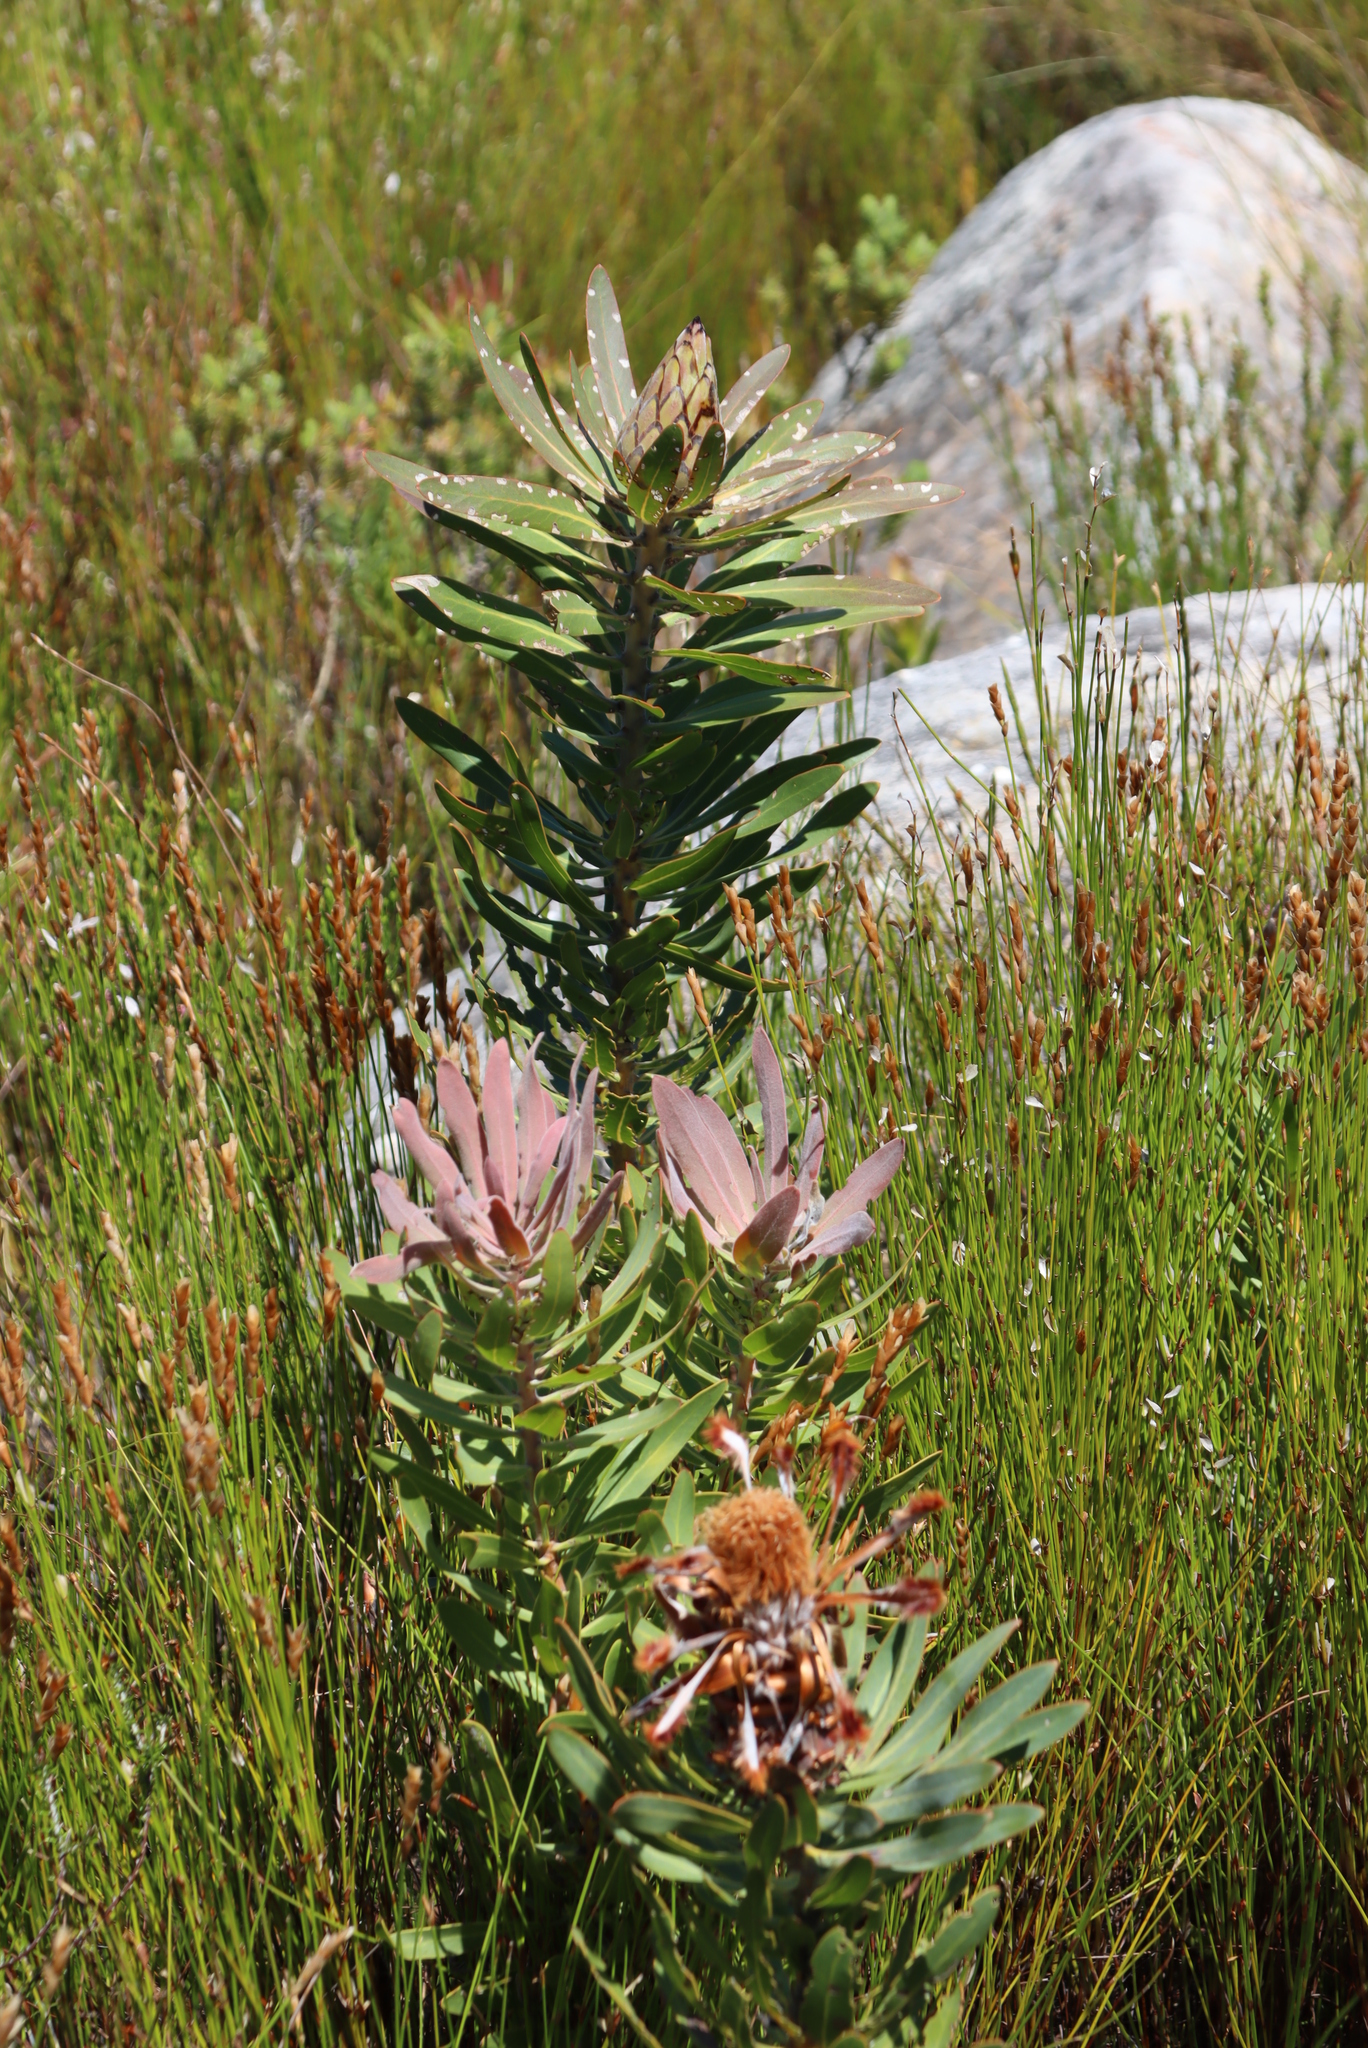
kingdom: Plantae
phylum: Tracheophyta
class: Magnoliopsida
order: Proteales
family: Proteaceae
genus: Protea
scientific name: Protea laurifolia
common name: Grey-leaf sugarbsh
